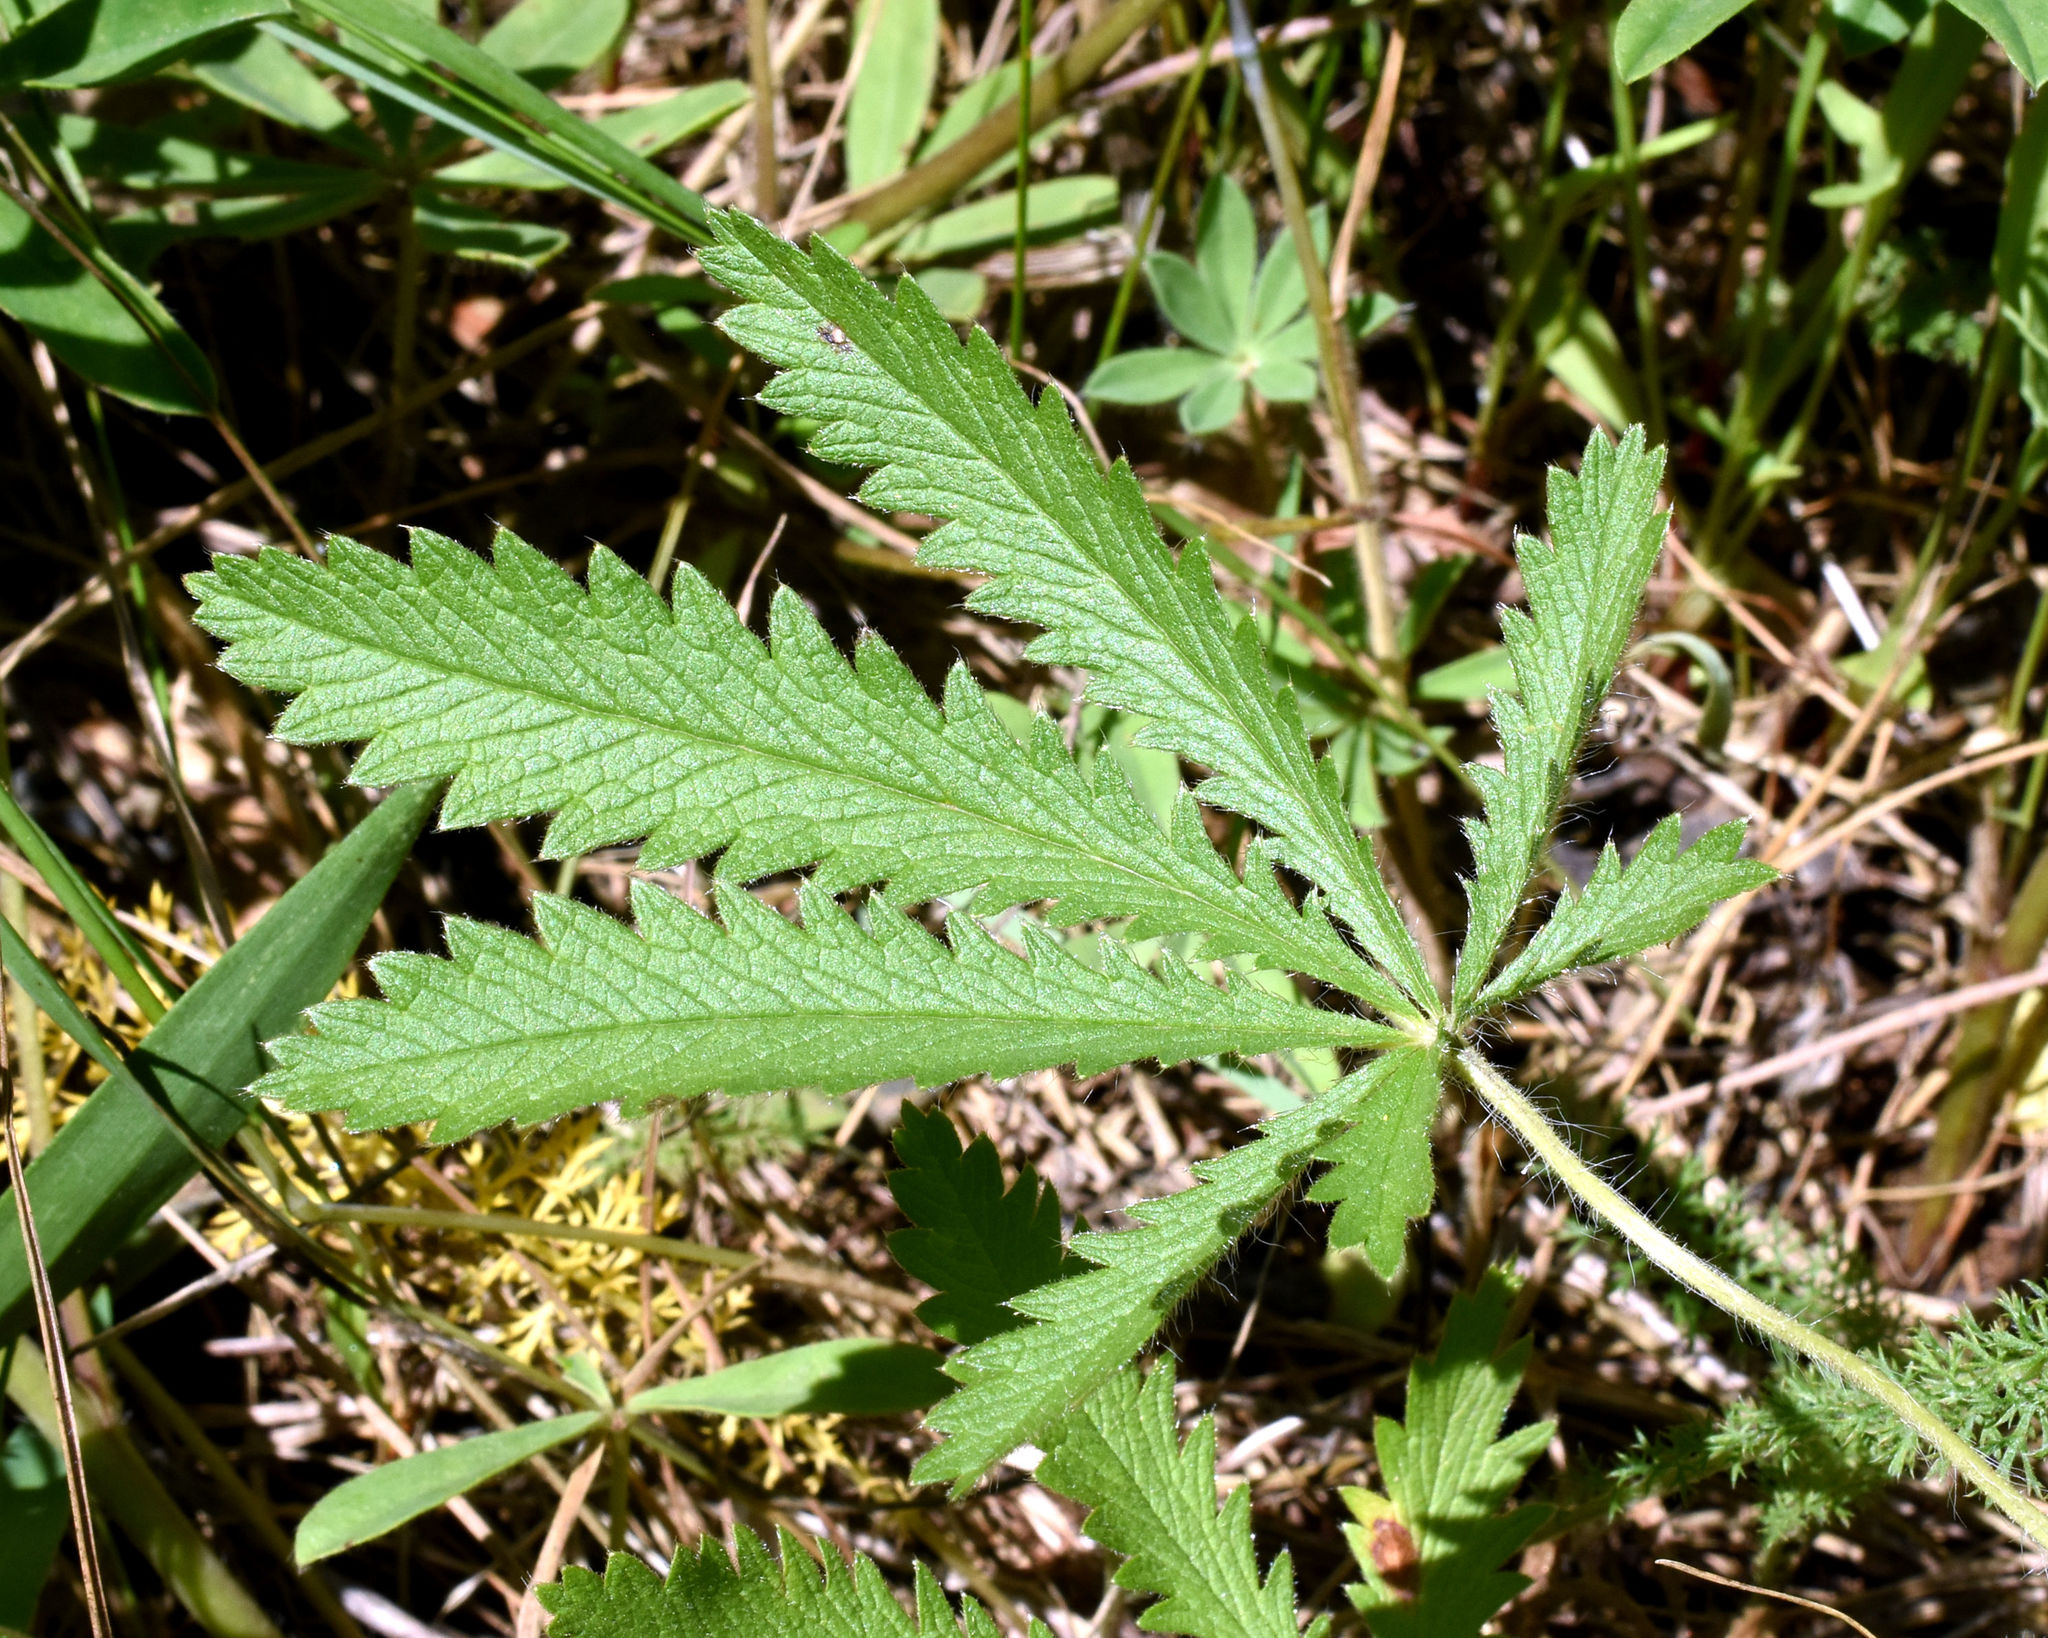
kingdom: Plantae
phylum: Tracheophyta
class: Magnoliopsida
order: Rosales
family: Rosaceae
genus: Potentilla
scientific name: Potentilla recta
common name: Sulphur cinquefoil
